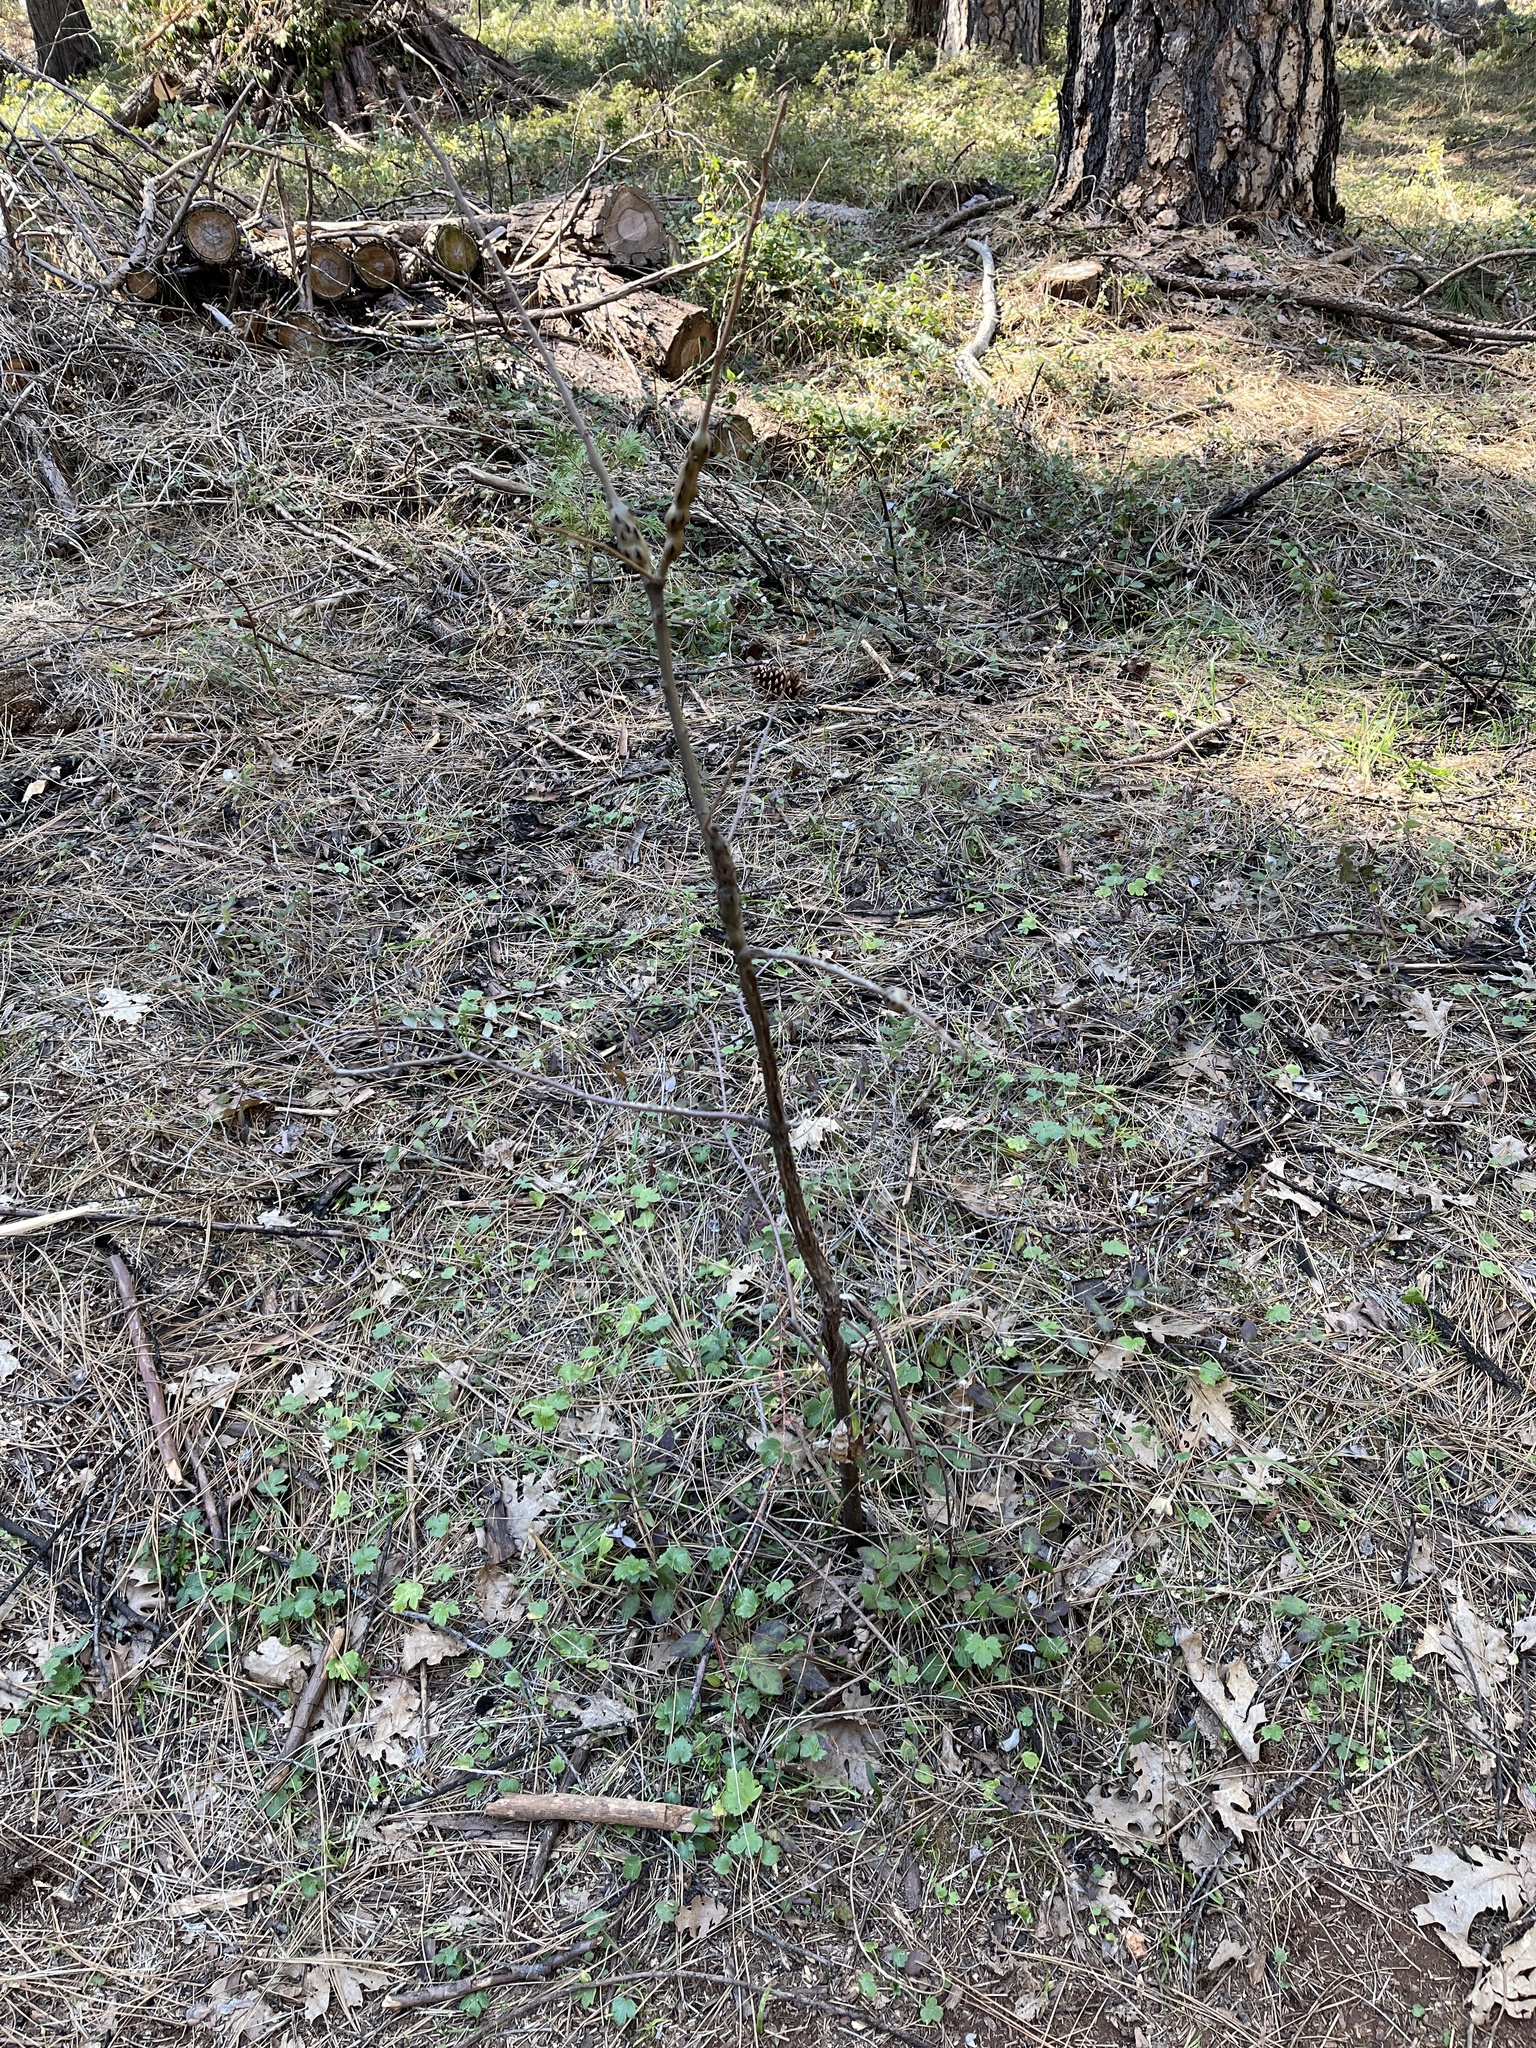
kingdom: Animalia
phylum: Arthropoda
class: Insecta
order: Hymenoptera
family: Cynipidae
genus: Callirhytis
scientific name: Callirhytis
